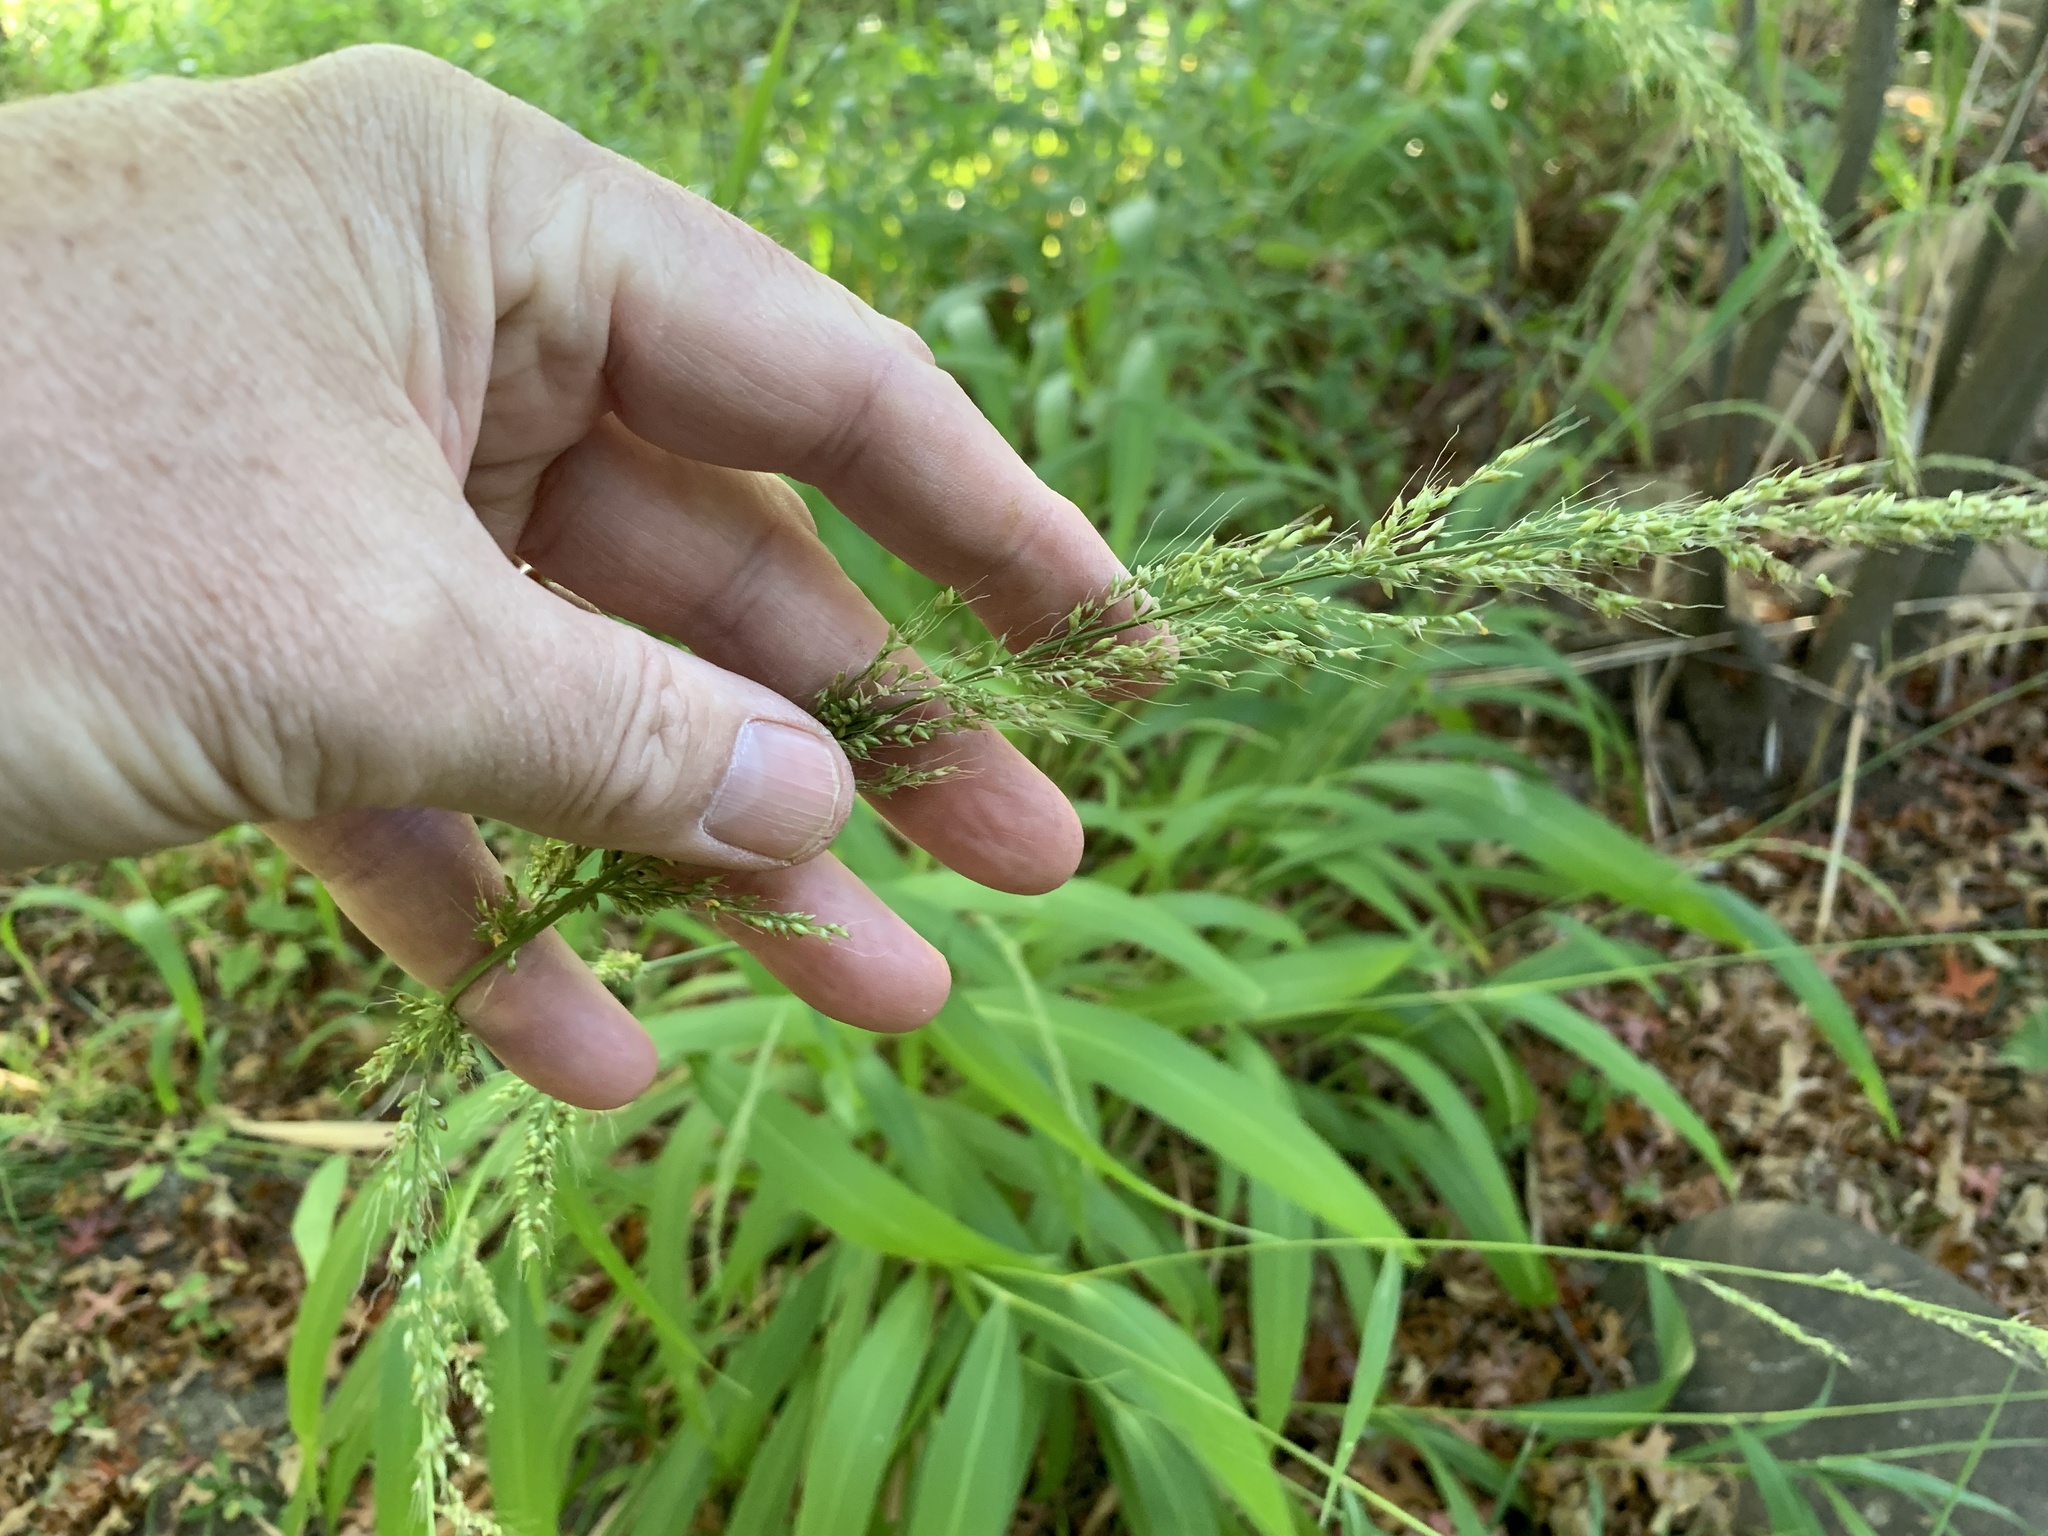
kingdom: Plantae
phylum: Tracheophyta
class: Liliopsida
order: Poales
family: Poaceae
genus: Setaria
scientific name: Setaria megaphylla
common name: Bigleaf bristlegrass
